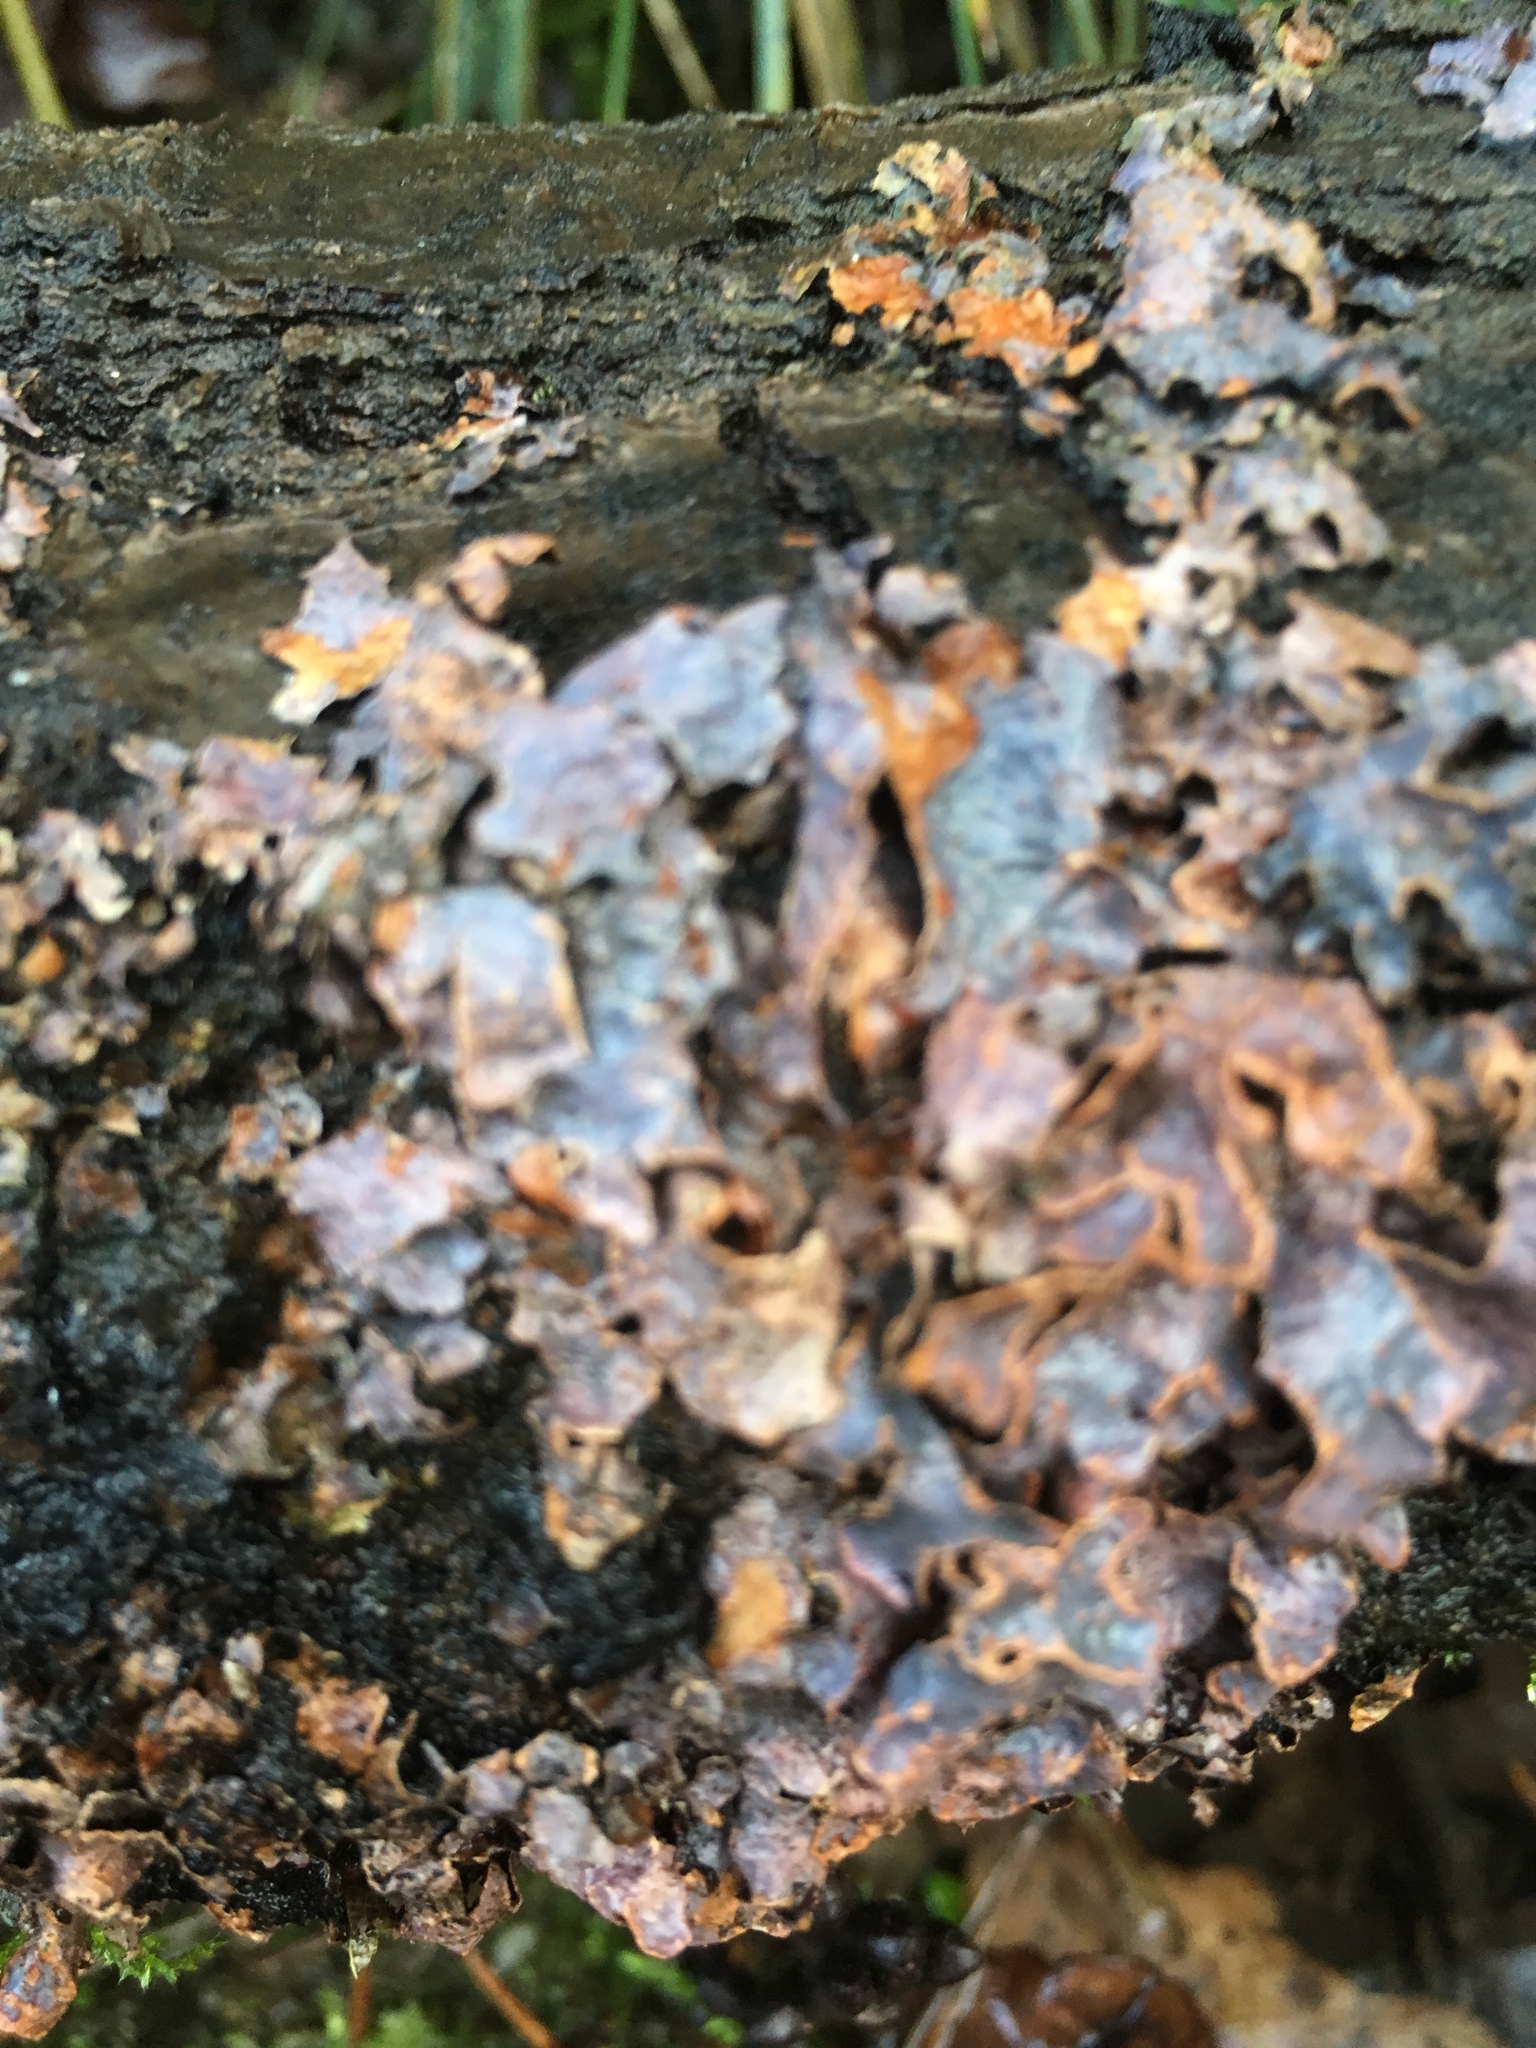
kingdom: Fungi
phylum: Ascomycota
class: Lecanoromycetes
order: Lecanorales
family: Parmeliaceae
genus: Parmelia
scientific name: Parmelia sulcata
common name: Netted shield lichen
